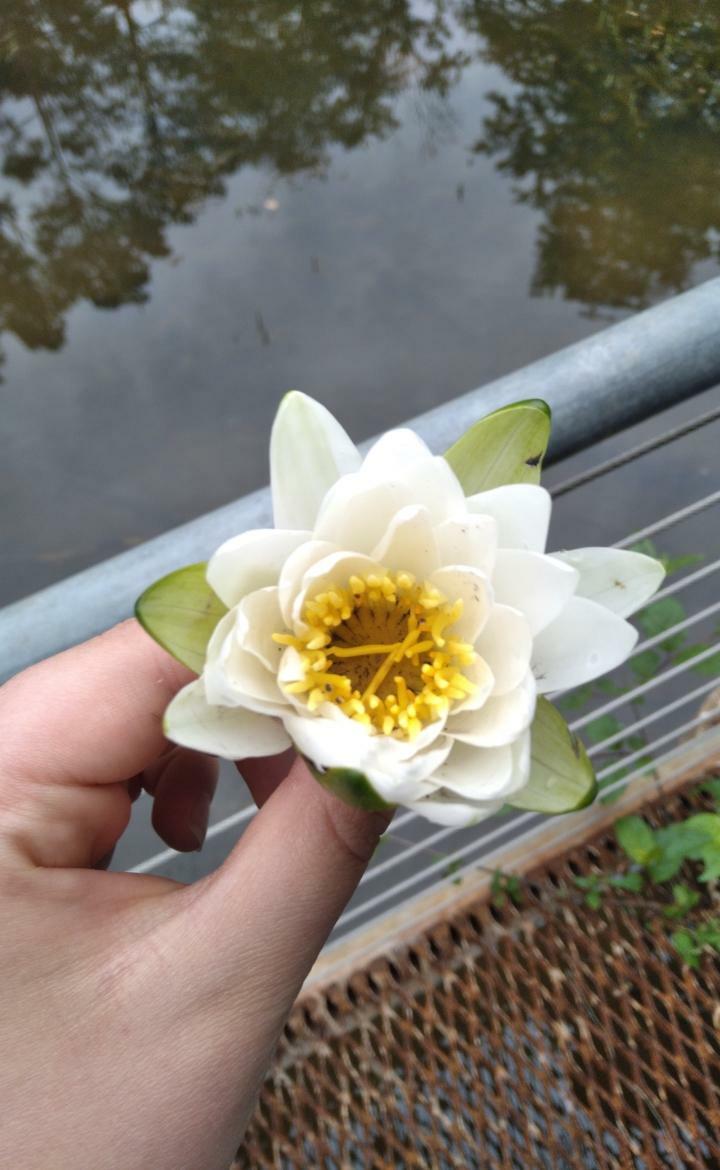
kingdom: Plantae
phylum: Tracheophyta
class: Magnoliopsida
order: Nymphaeales
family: Nymphaeaceae
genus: Nymphaea
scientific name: Nymphaea odorata
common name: Fragrant water-lily
